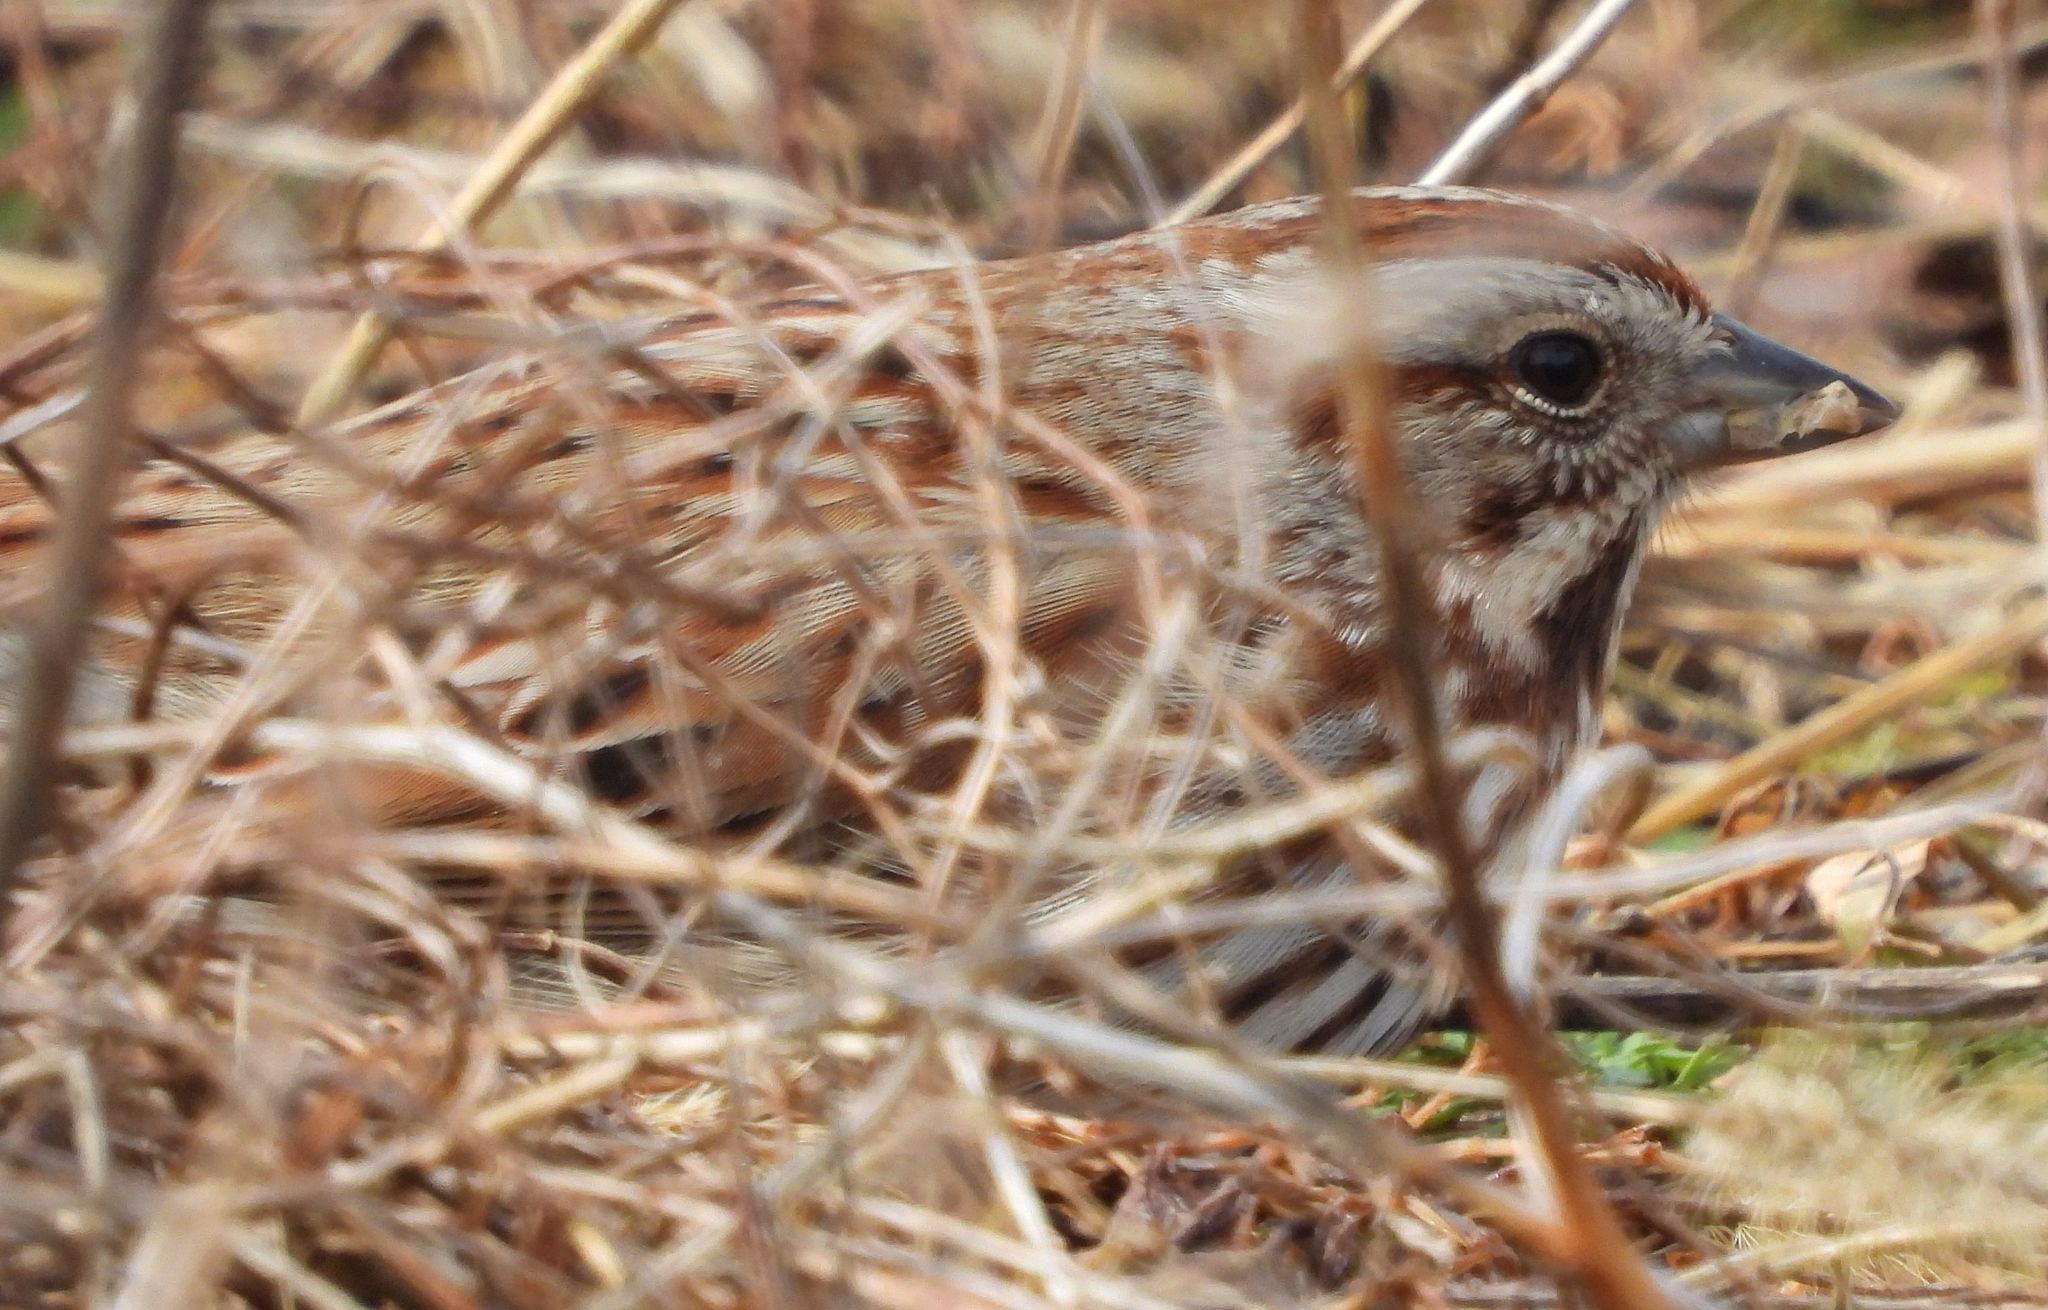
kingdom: Animalia
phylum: Chordata
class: Aves
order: Passeriformes
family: Passerellidae
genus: Melospiza
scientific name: Melospiza melodia
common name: Song sparrow
